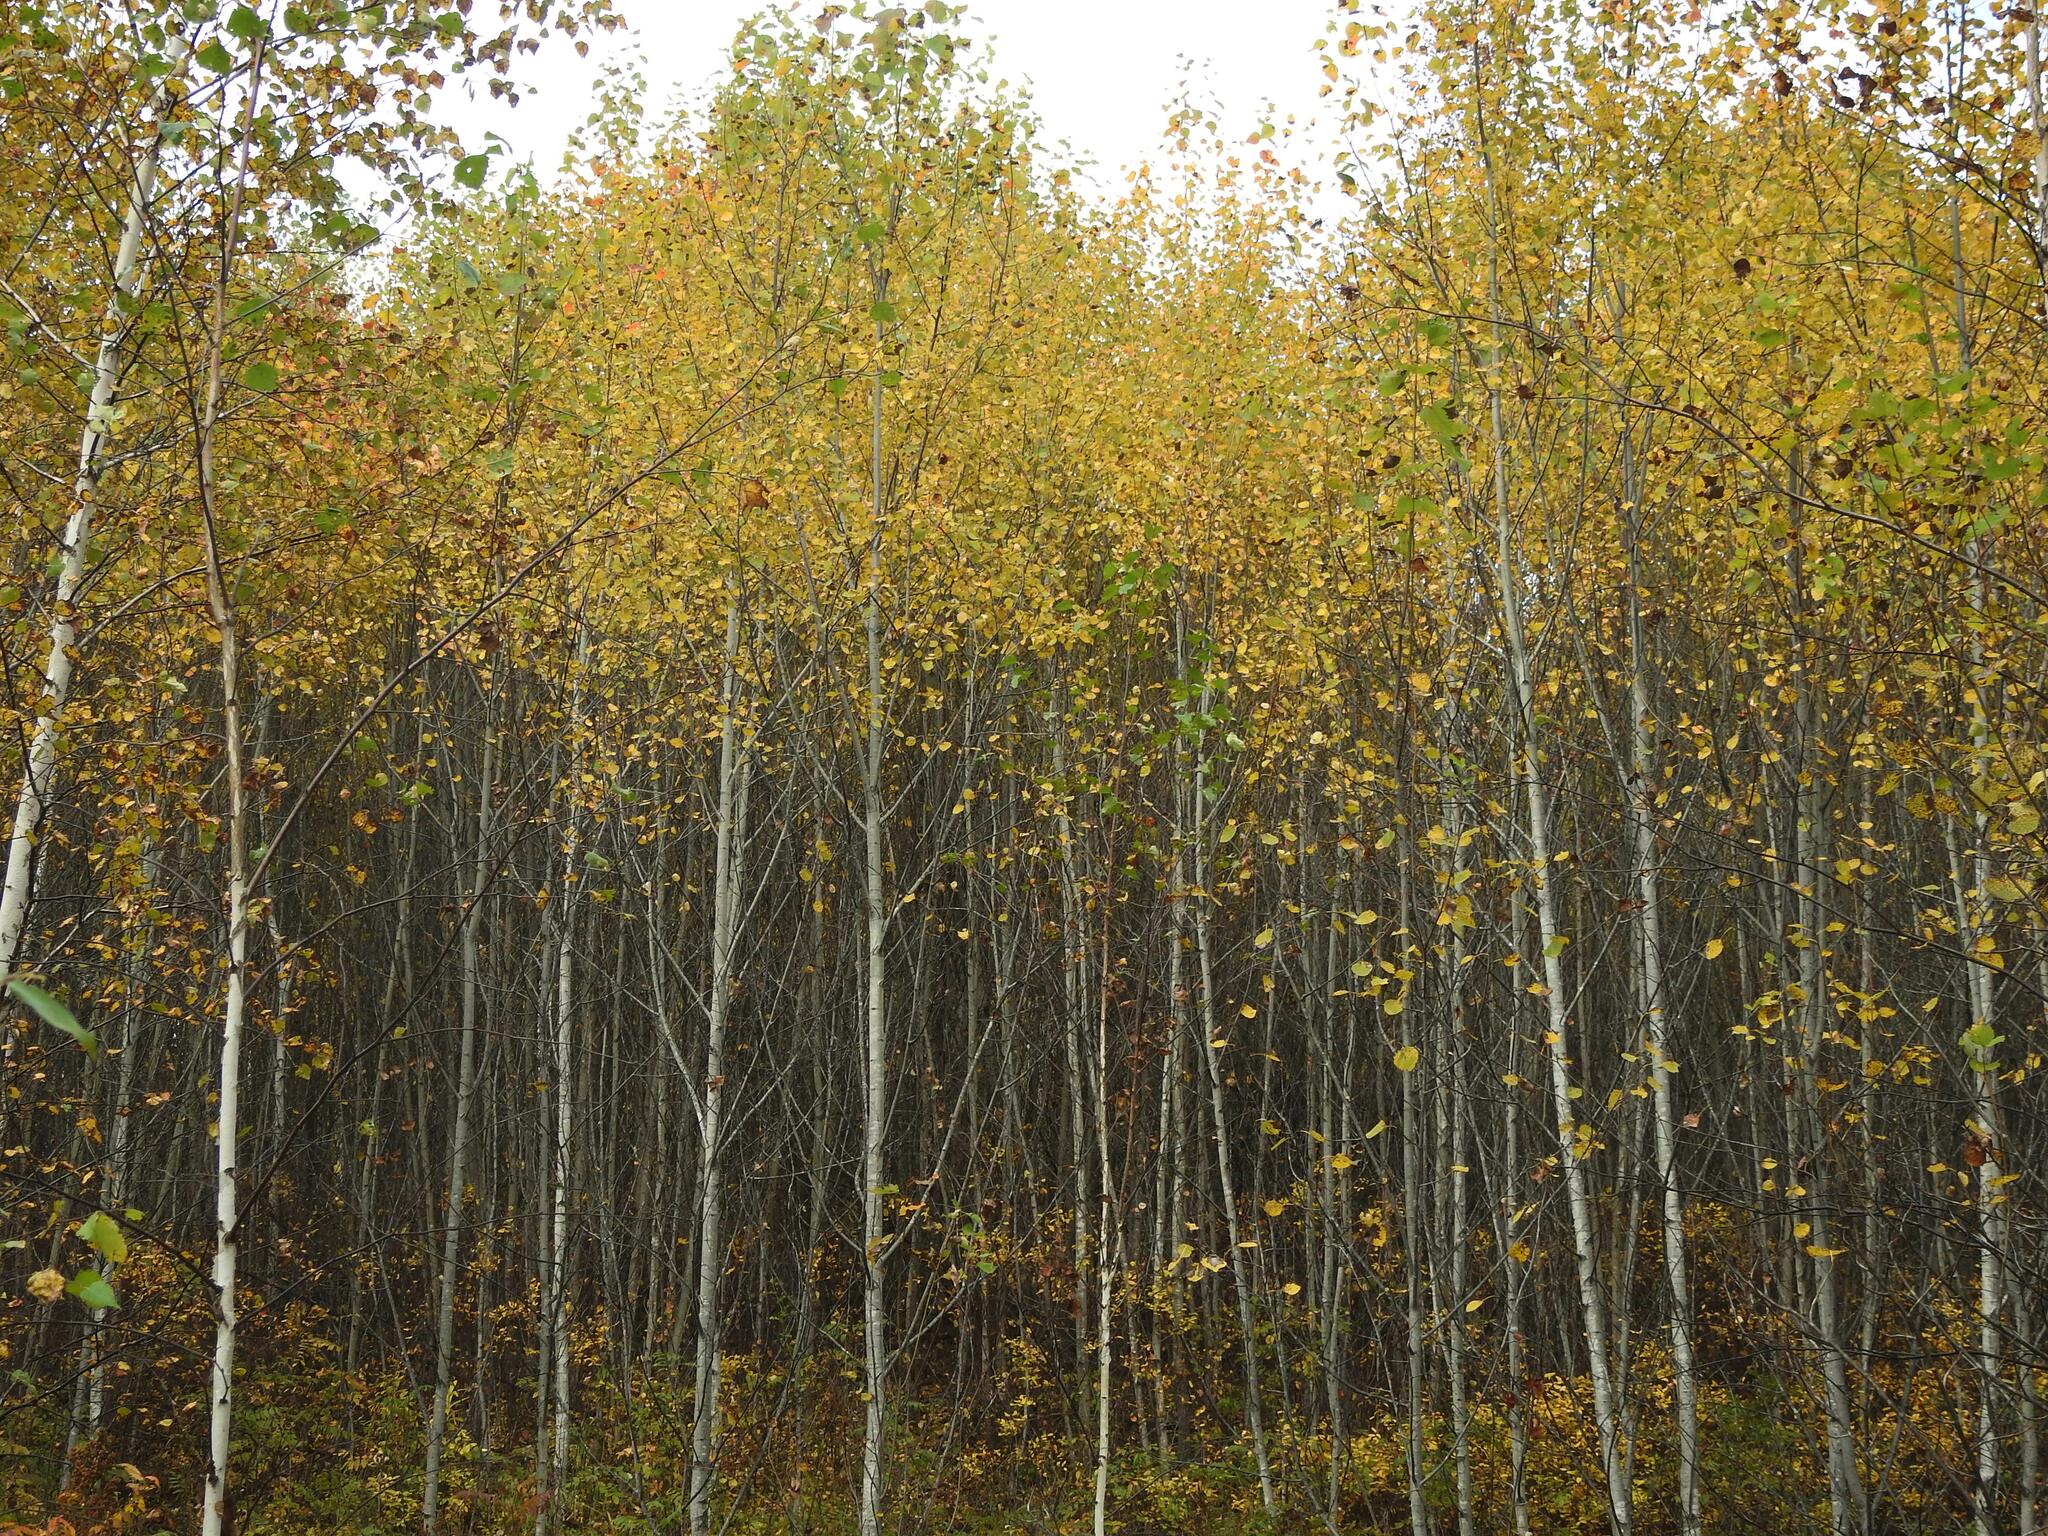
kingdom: Plantae
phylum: Tracheophyta
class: Magnoliopsida
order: Malpighiales
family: Salicaceae
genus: Populus
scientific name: Populus tremula
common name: European aspen
